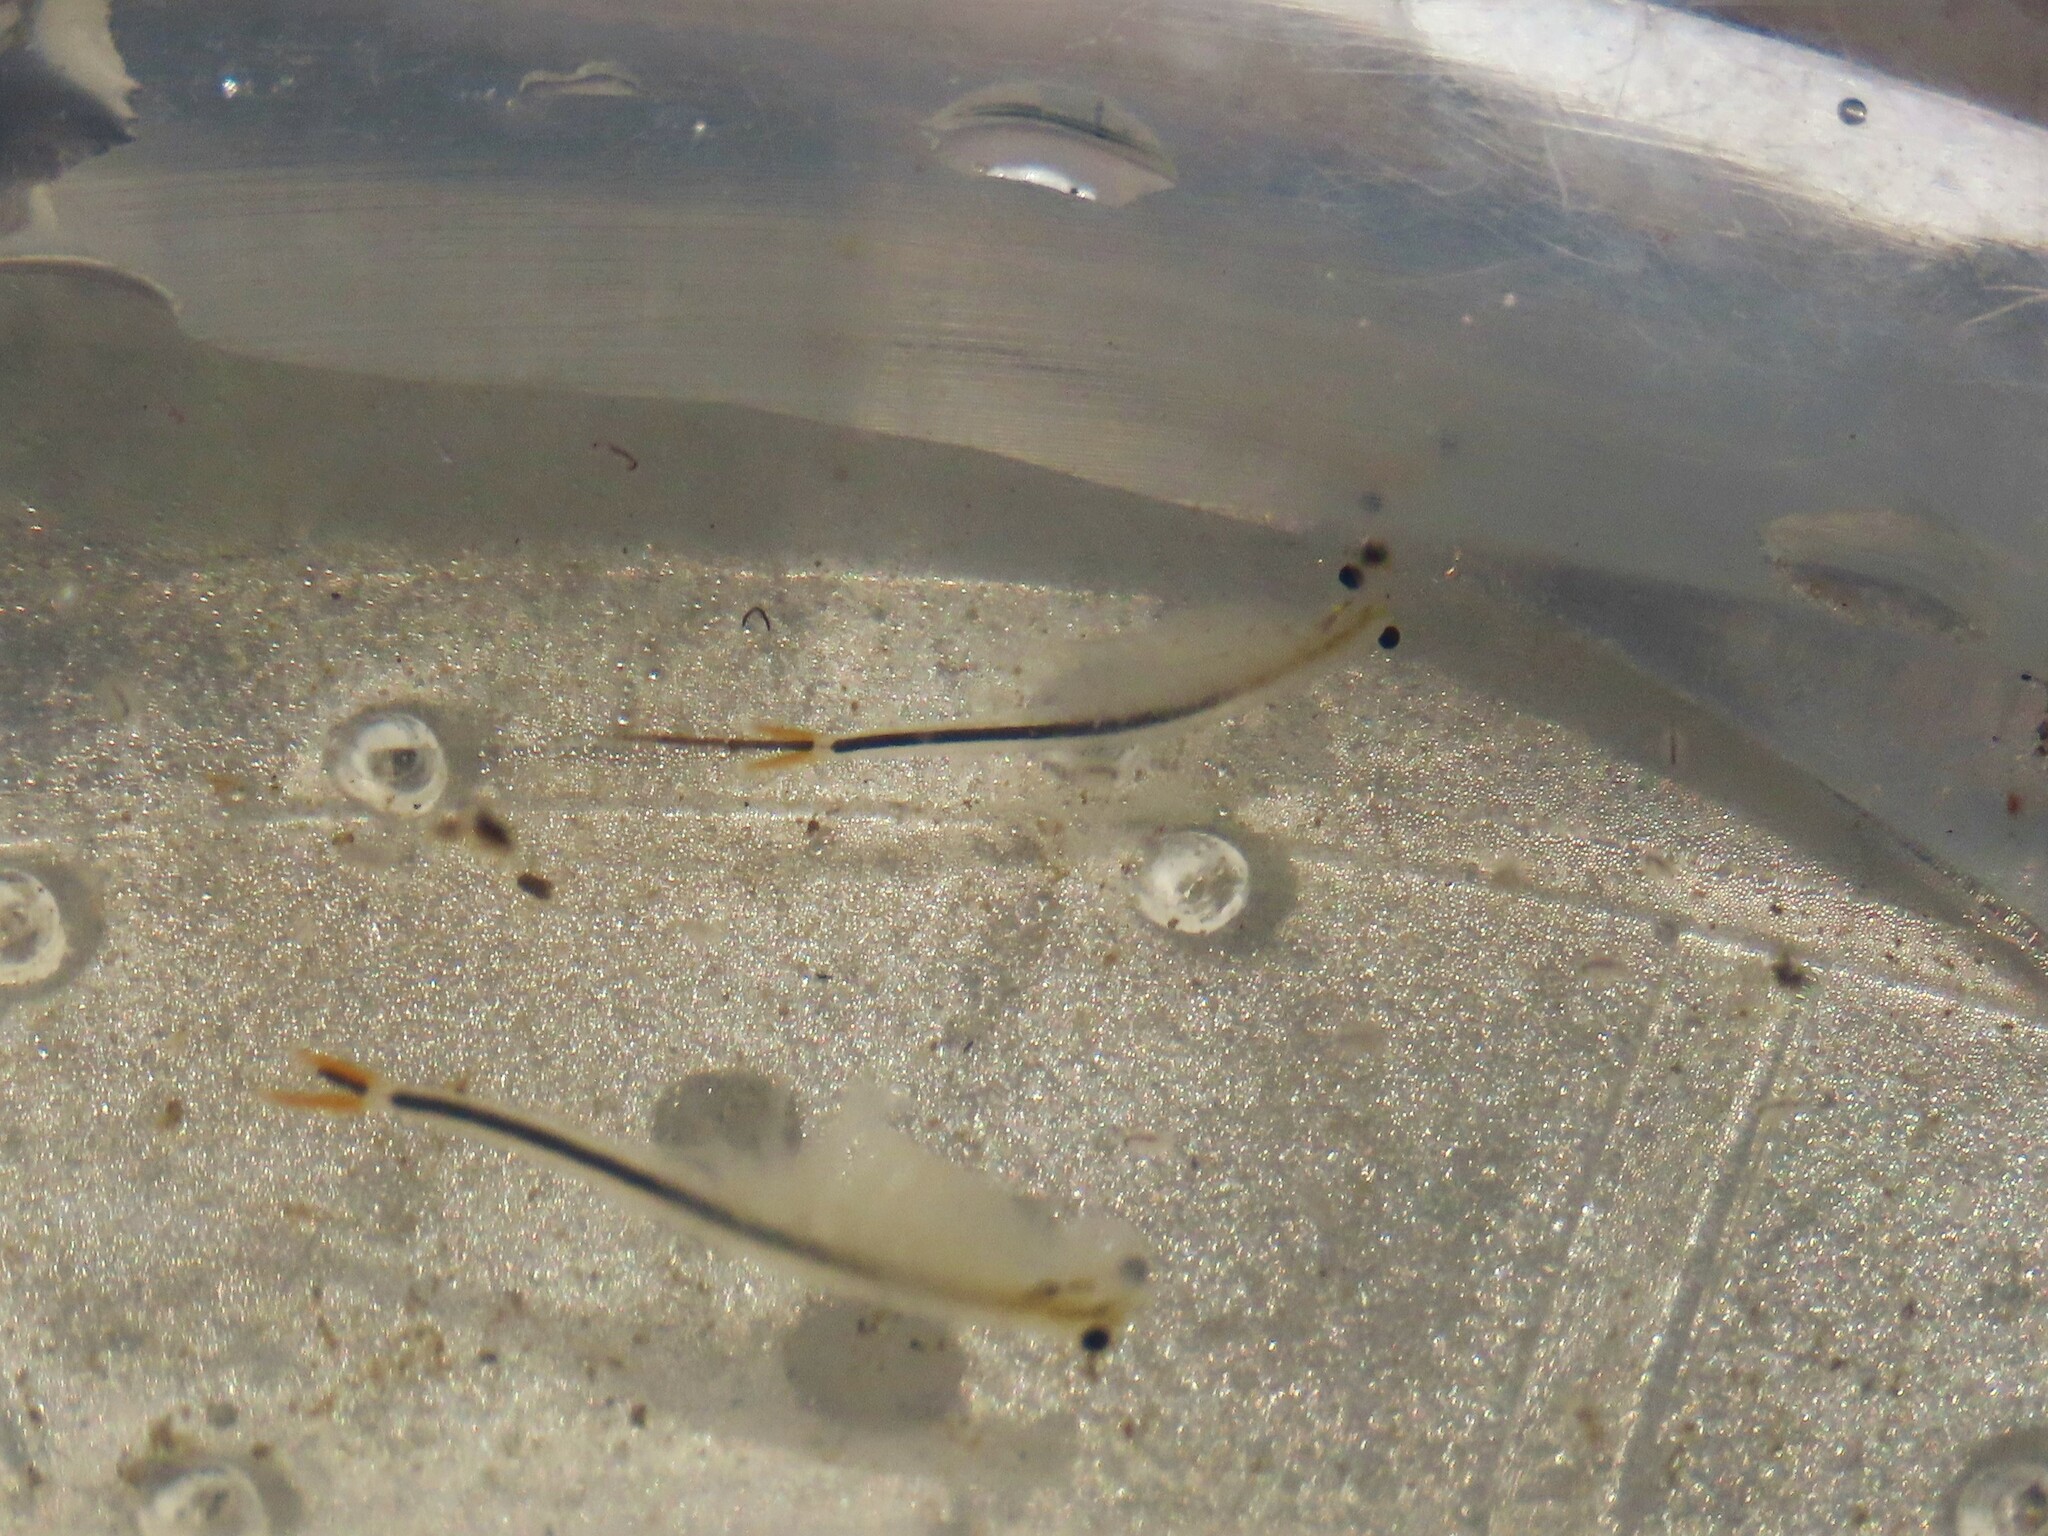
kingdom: Animalia
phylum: Arthropoda
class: Branchiopoda
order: Anostraca
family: Streptocephalidae
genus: Streptocephalus
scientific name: Streptocephalus sealii
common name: Spiny-tail fairy shrimp
